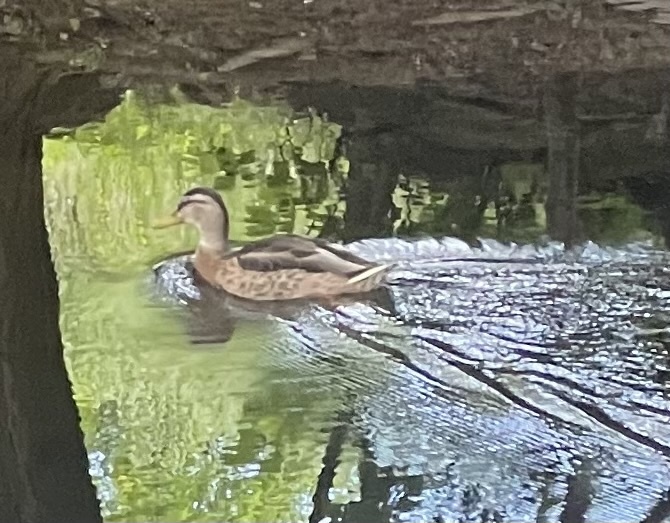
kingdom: Animalia
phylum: Chordata
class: Aves
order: Anseriformes
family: Anatidae
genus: Anas
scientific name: Anas platyrhynchos
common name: Mallard
